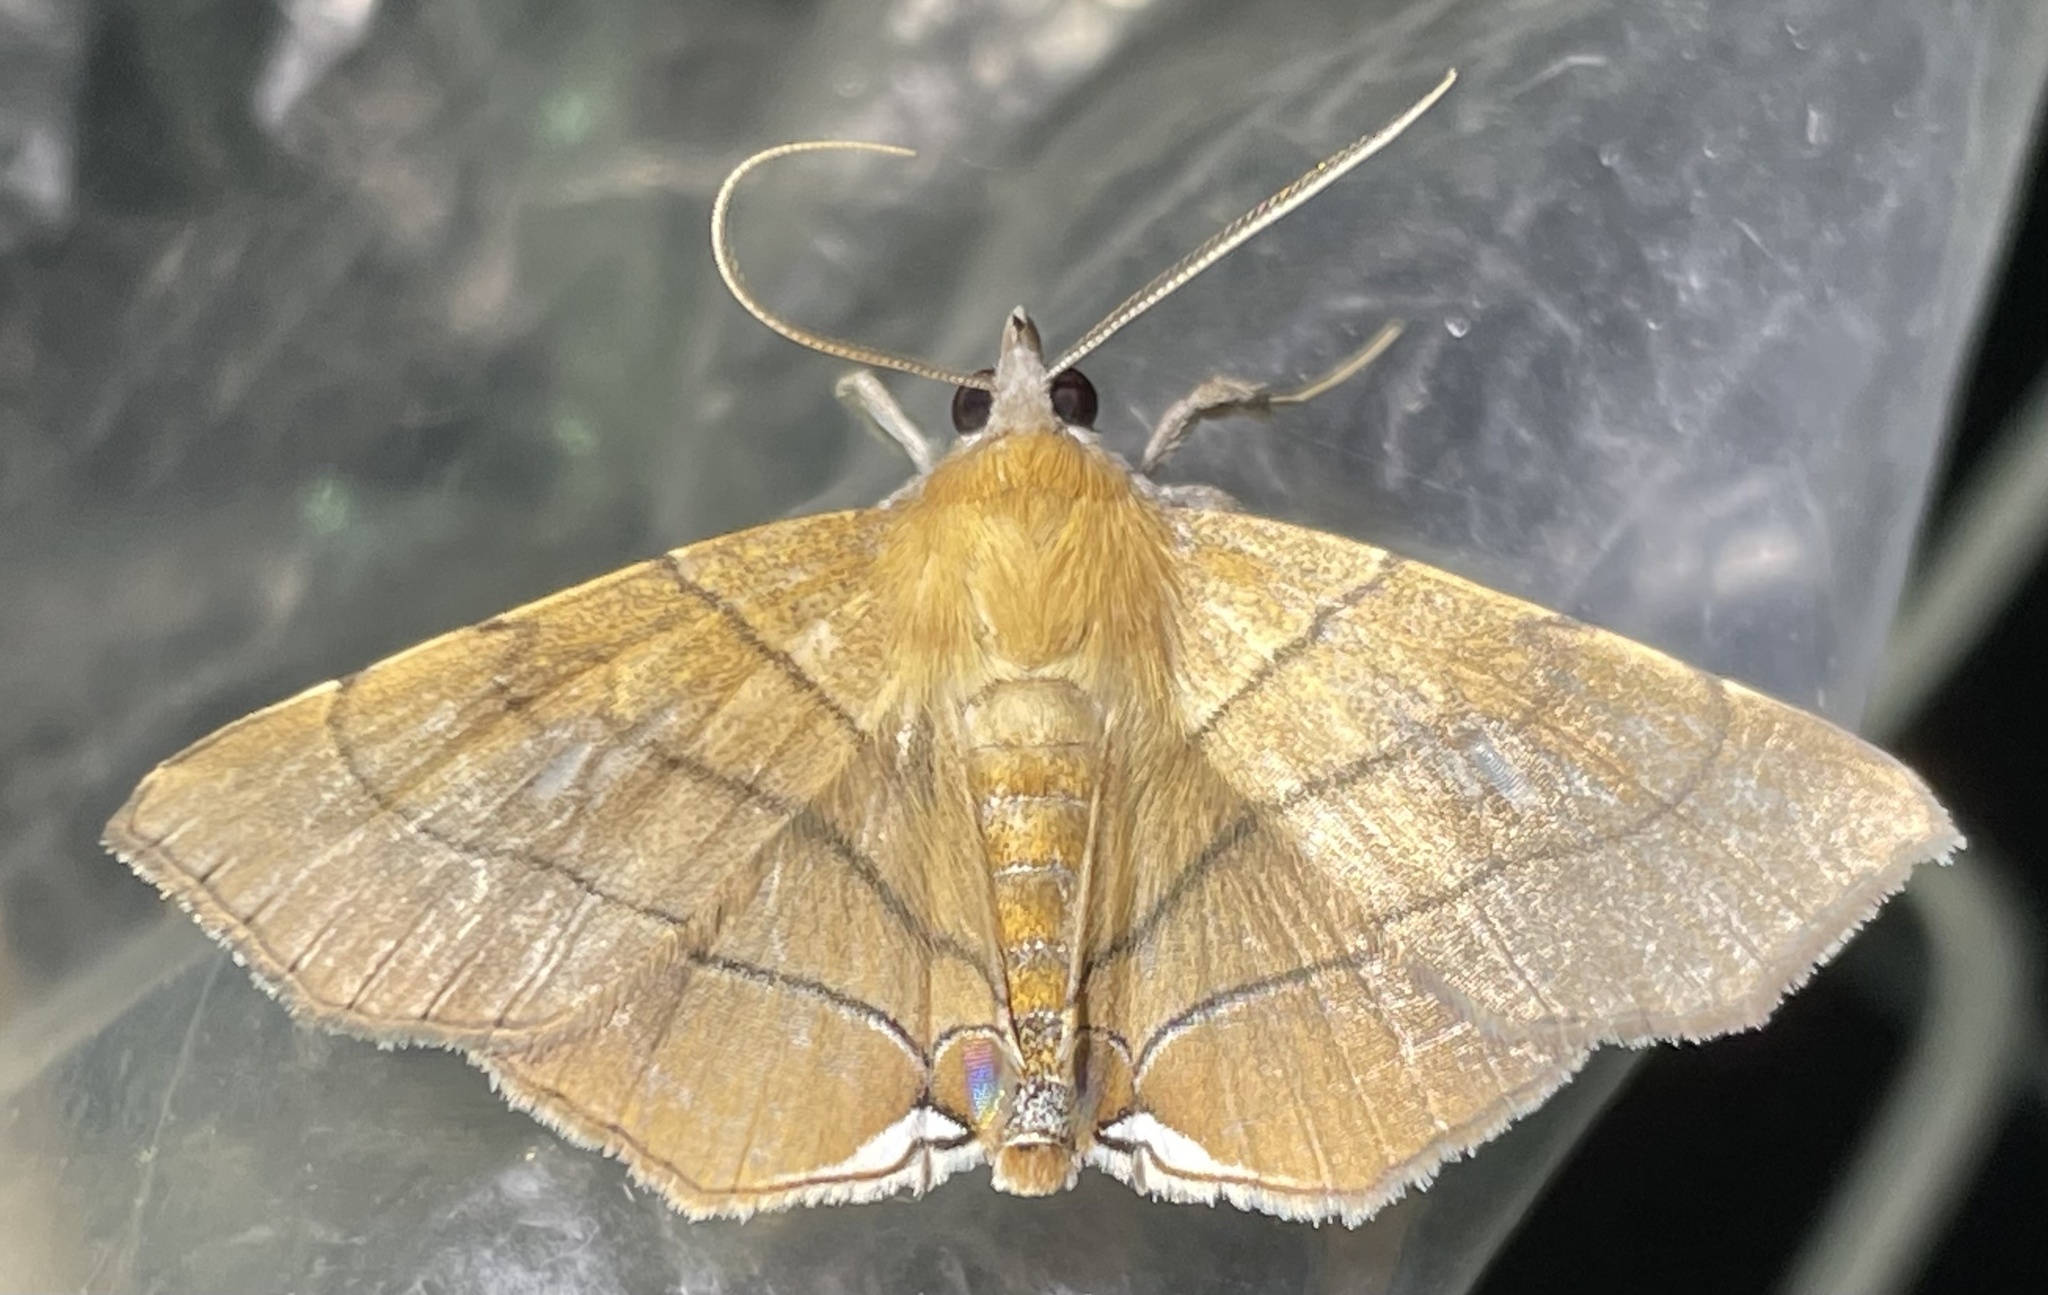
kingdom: Animalia
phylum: Arthropoda
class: Insecta
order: Lepidoptera
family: Erebidae
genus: Gracilodes
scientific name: Gracilodes caffra
